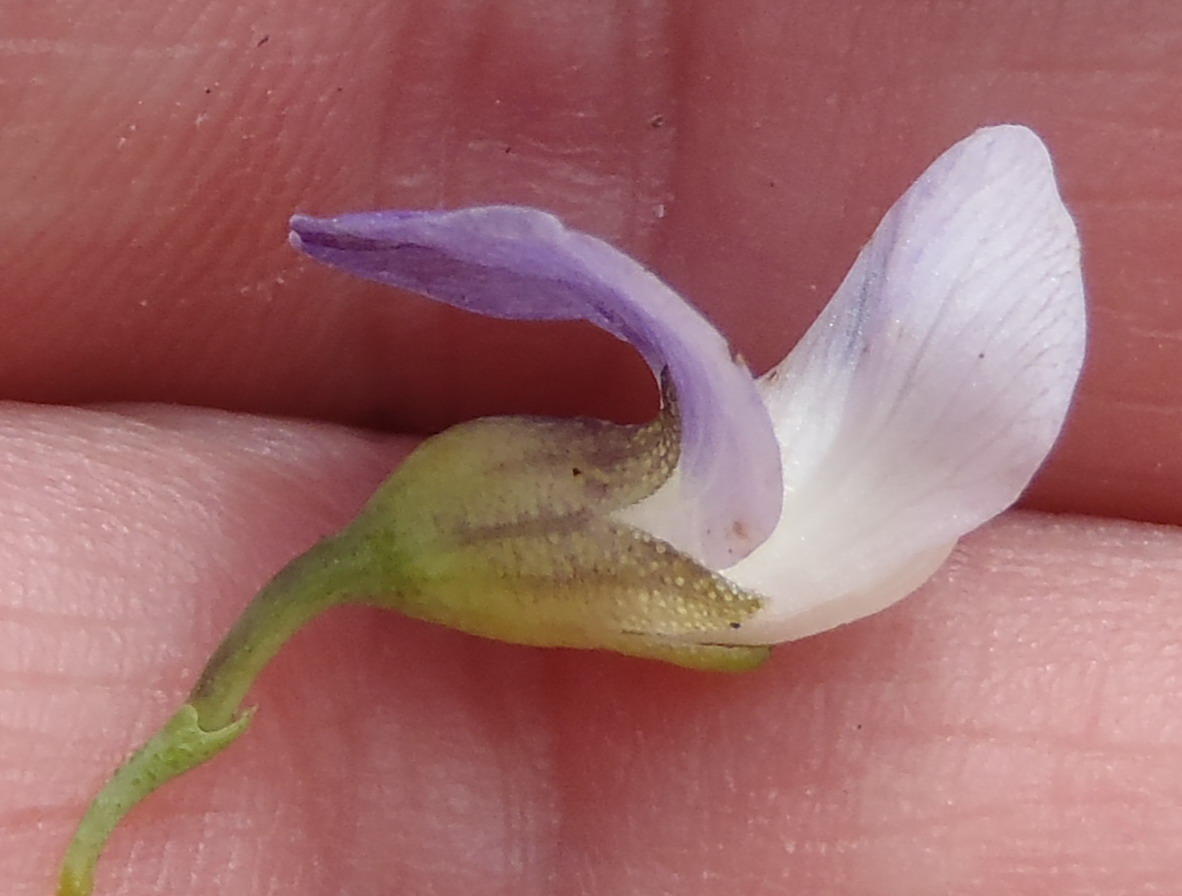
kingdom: Plantae
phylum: Tracheophyta
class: Magnoliopsida
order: Fabales
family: Fabaceae
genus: Psoralea
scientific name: Psoralea axillaris
